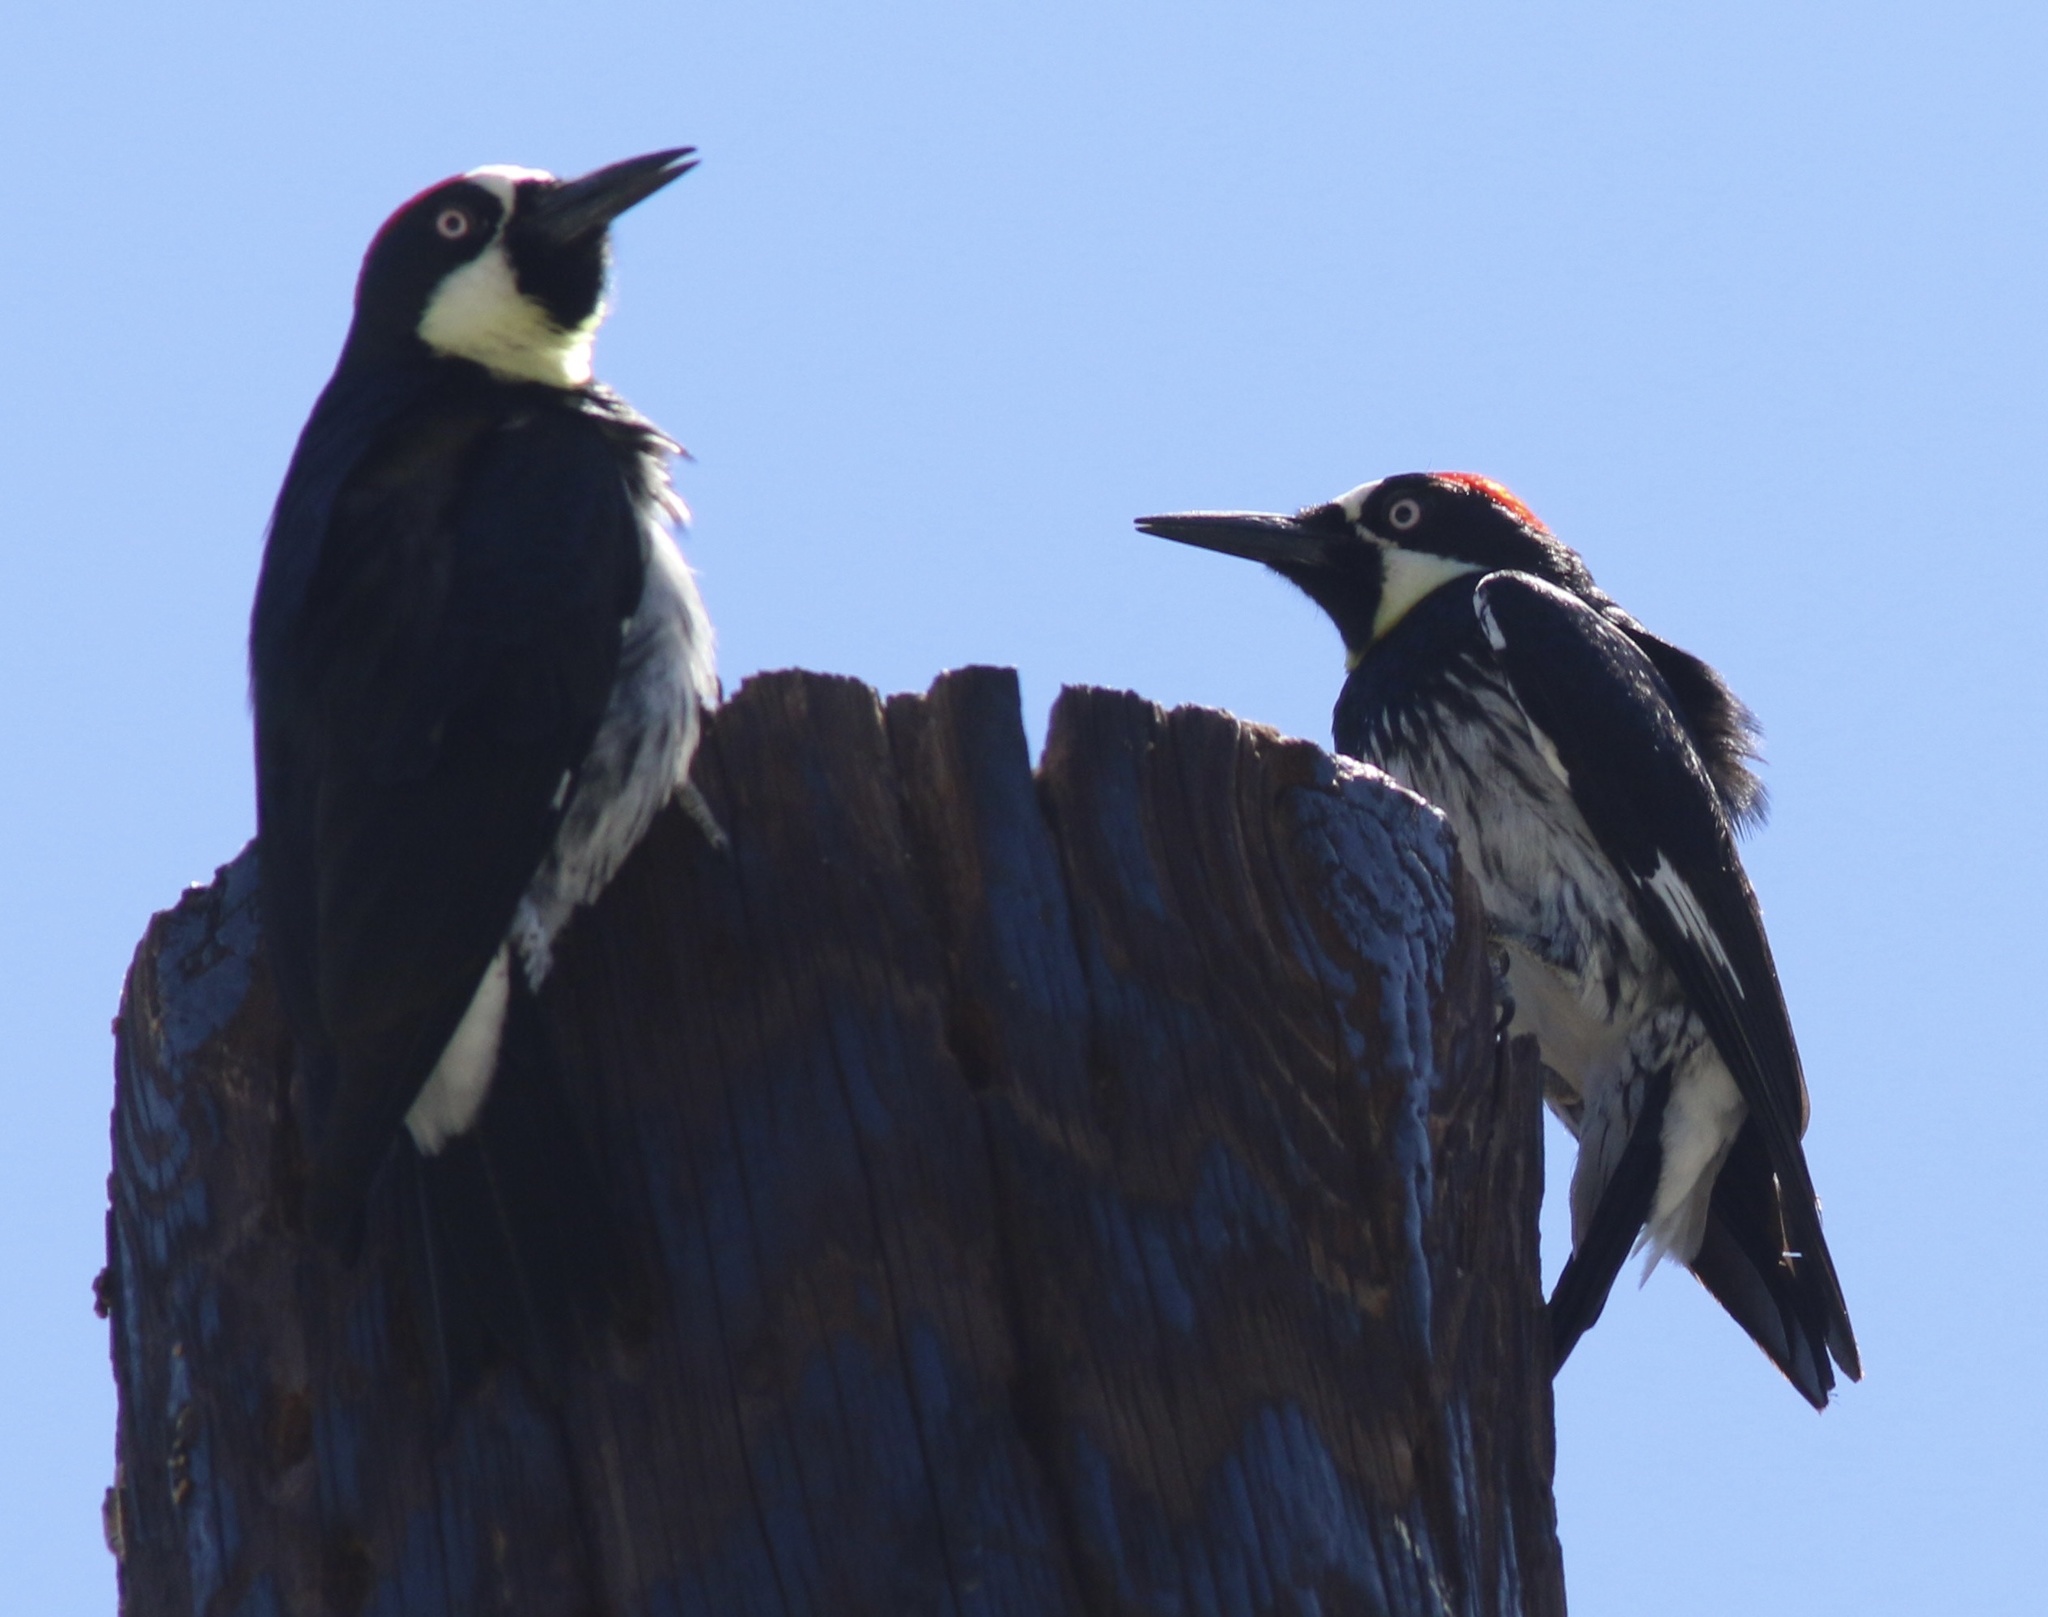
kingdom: Animalia
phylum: Chordata
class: Aves
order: Piciformes
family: Picidae
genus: Melanerpes
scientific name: Melanerpes formicivorus
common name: Acorn woodpecker
